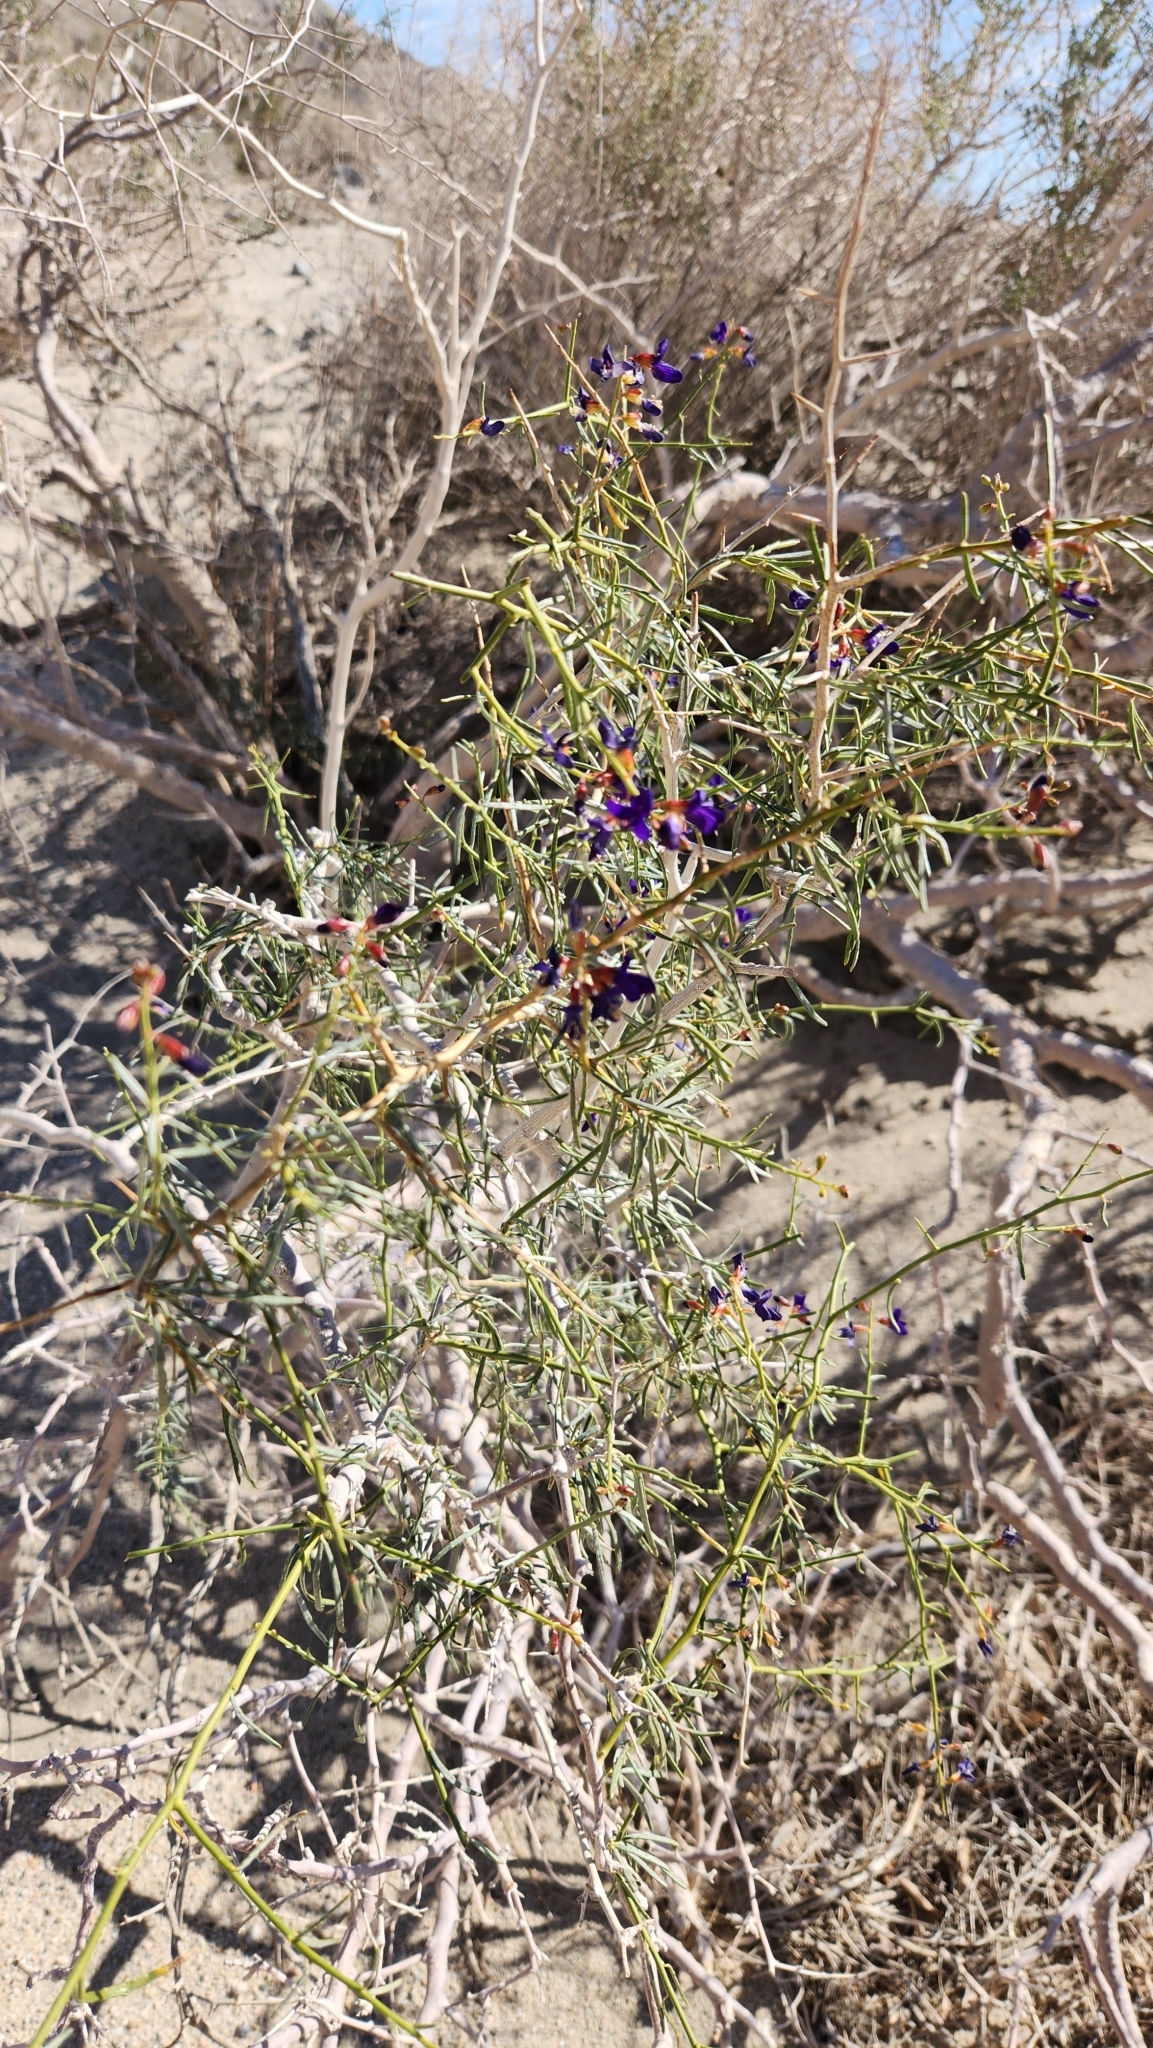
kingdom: Plantae
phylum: Tracheophyta
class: Magnoliopsida
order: Fabales
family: Fabaceae
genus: Psorothamnus
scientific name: Psorothamnus schottii
